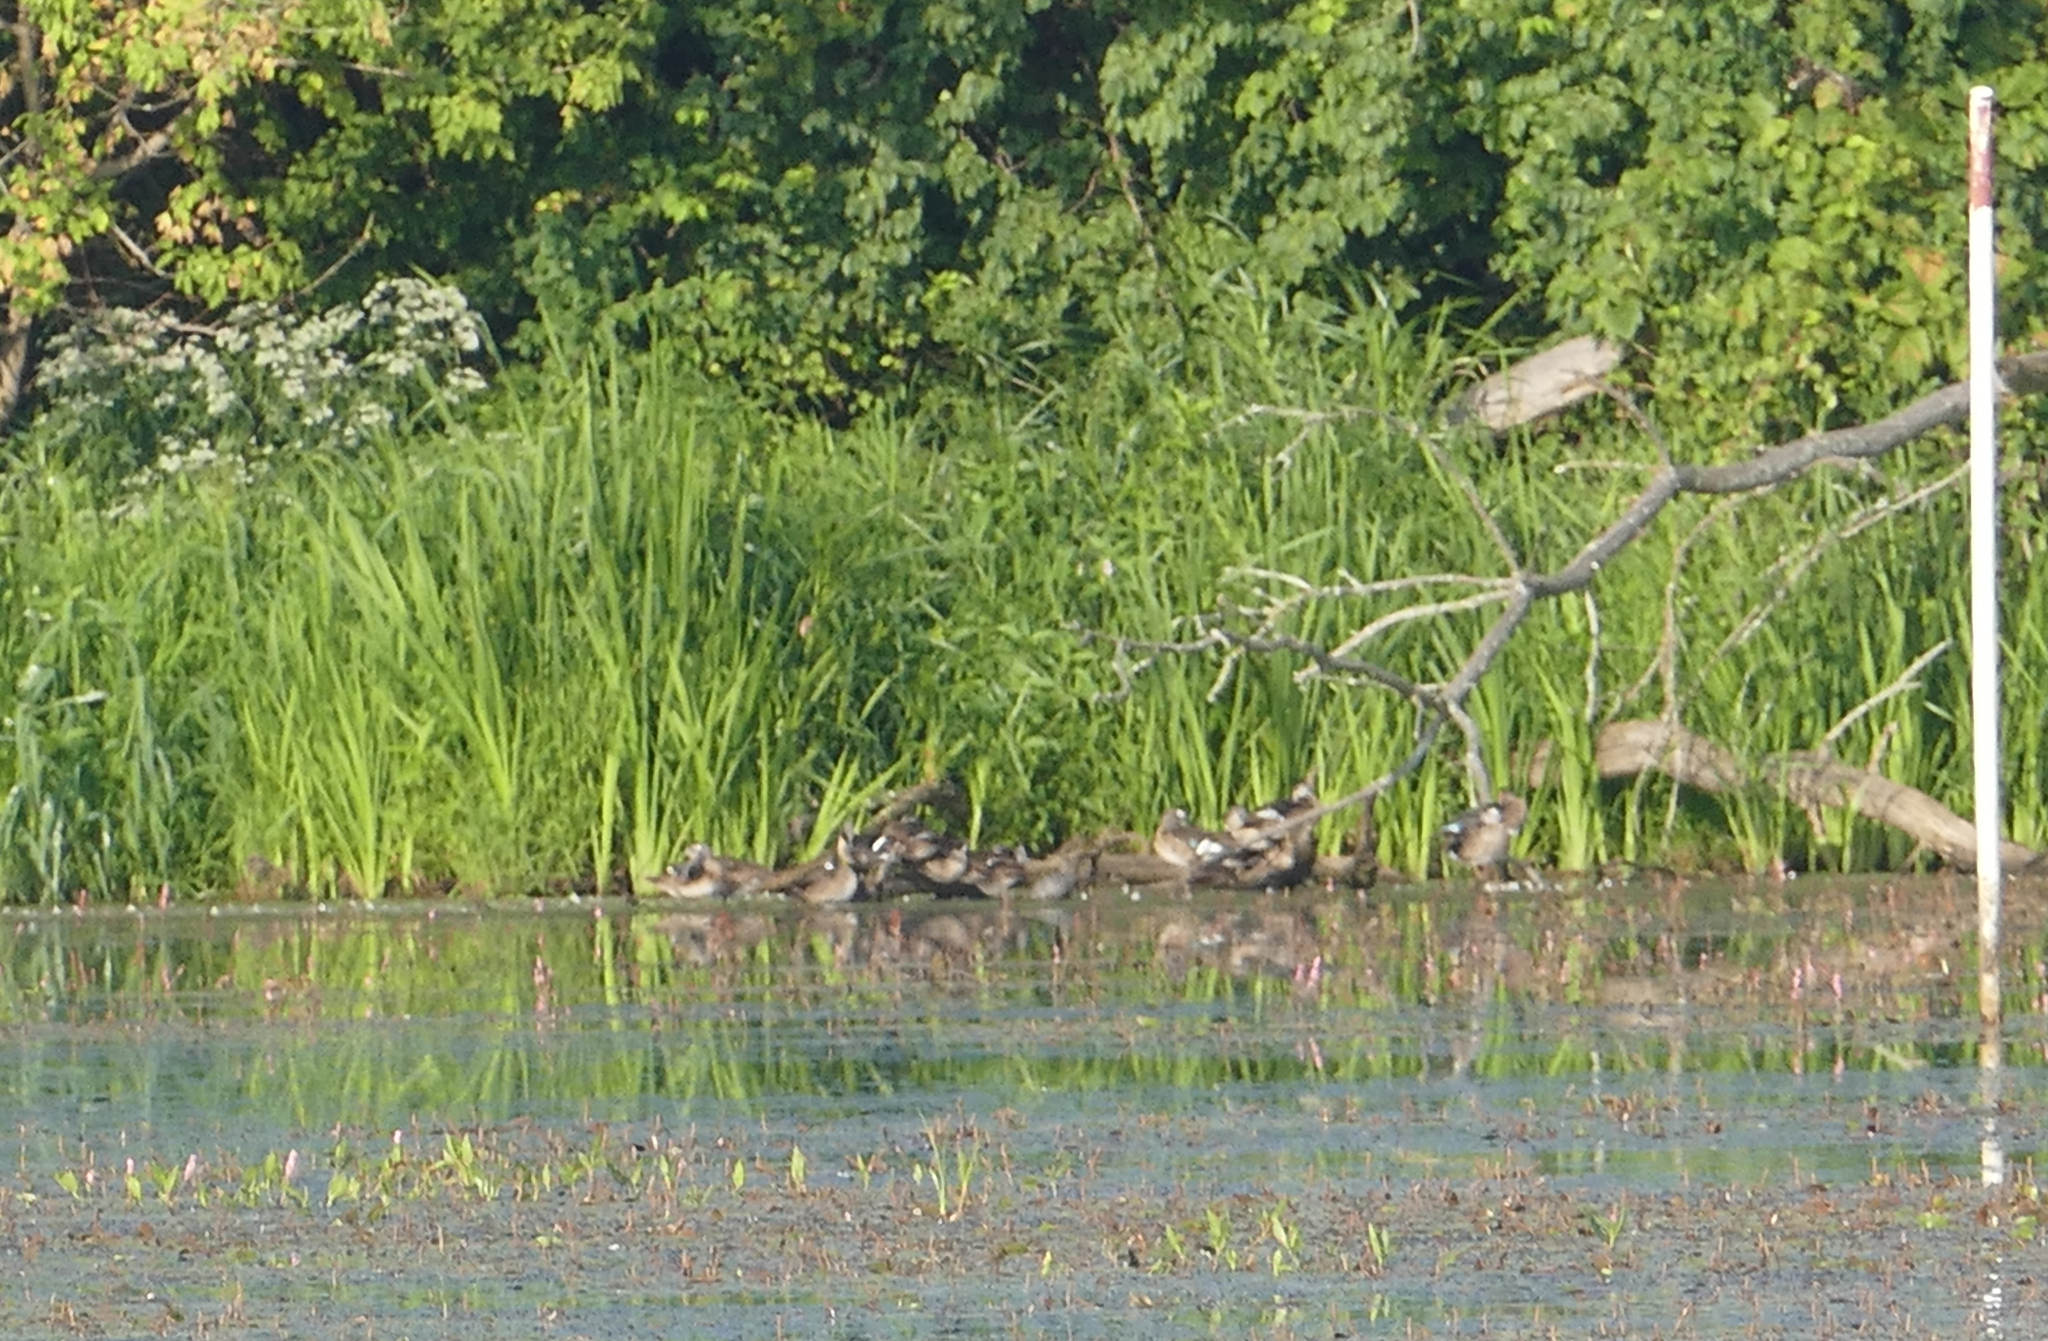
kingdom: Animalia
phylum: Chordata
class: Aves
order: Anseriformes
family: Anatidae
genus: Aix
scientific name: Aix sponsa
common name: Wood duck
